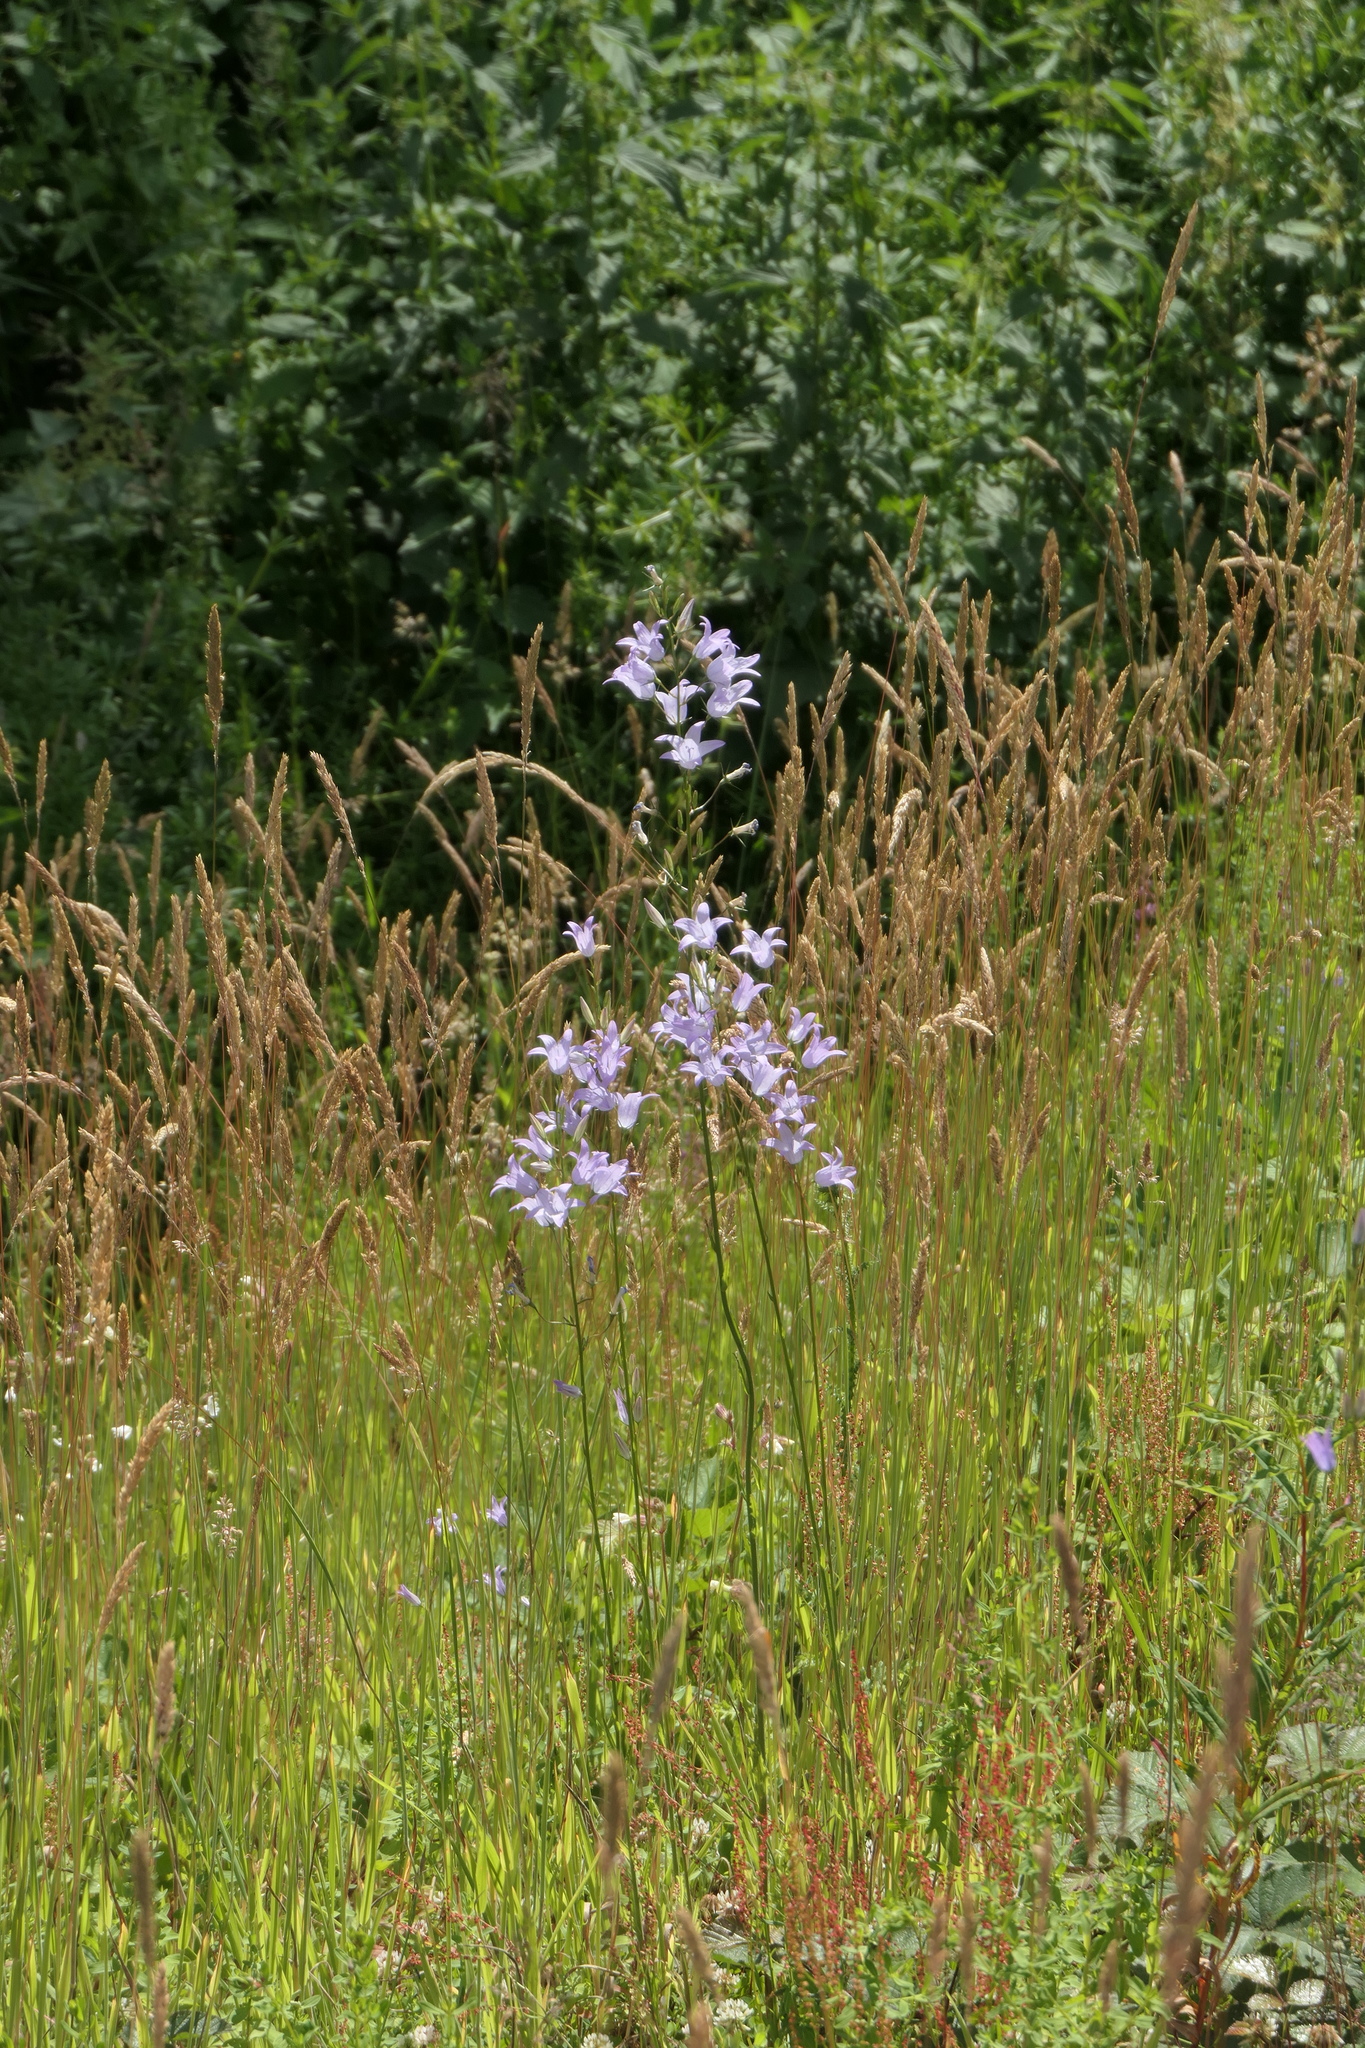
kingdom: Plantae
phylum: Tracheophyta
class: Magnoliopsida
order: Asterales
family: Campanulaceae
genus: Campanula
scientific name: Campanula rapunculus
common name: Rampion bellflower
